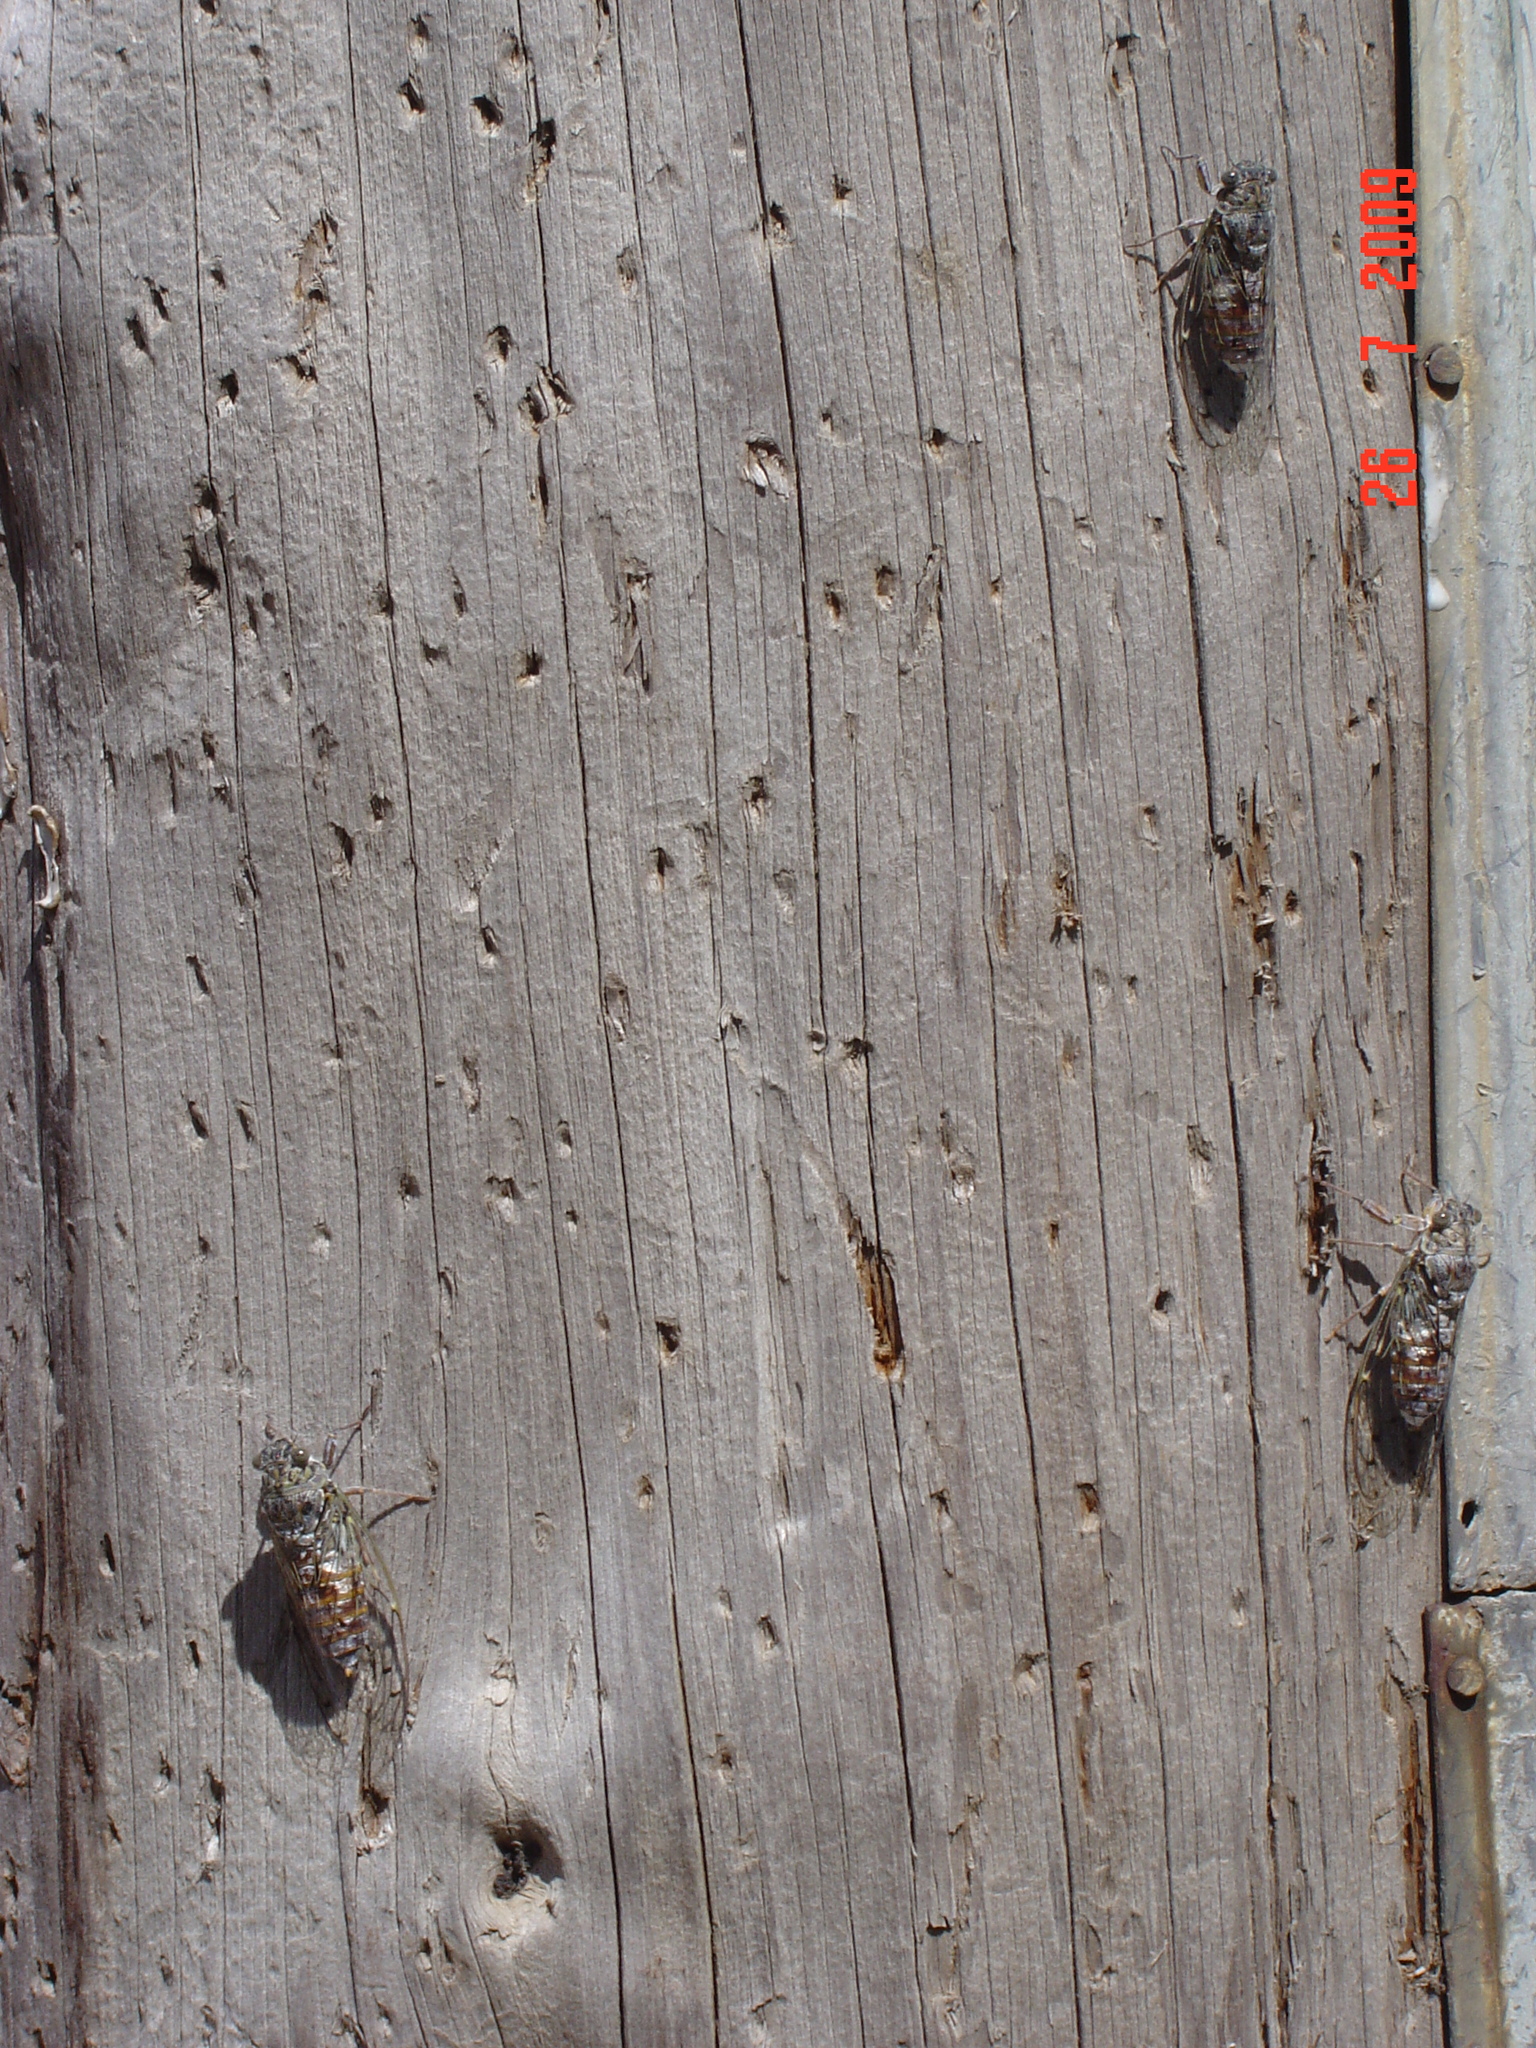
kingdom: Animalia
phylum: Arthropoda
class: Insecta
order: Hemiptera
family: Cicadidae
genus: Cicada
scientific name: Cicada orni
